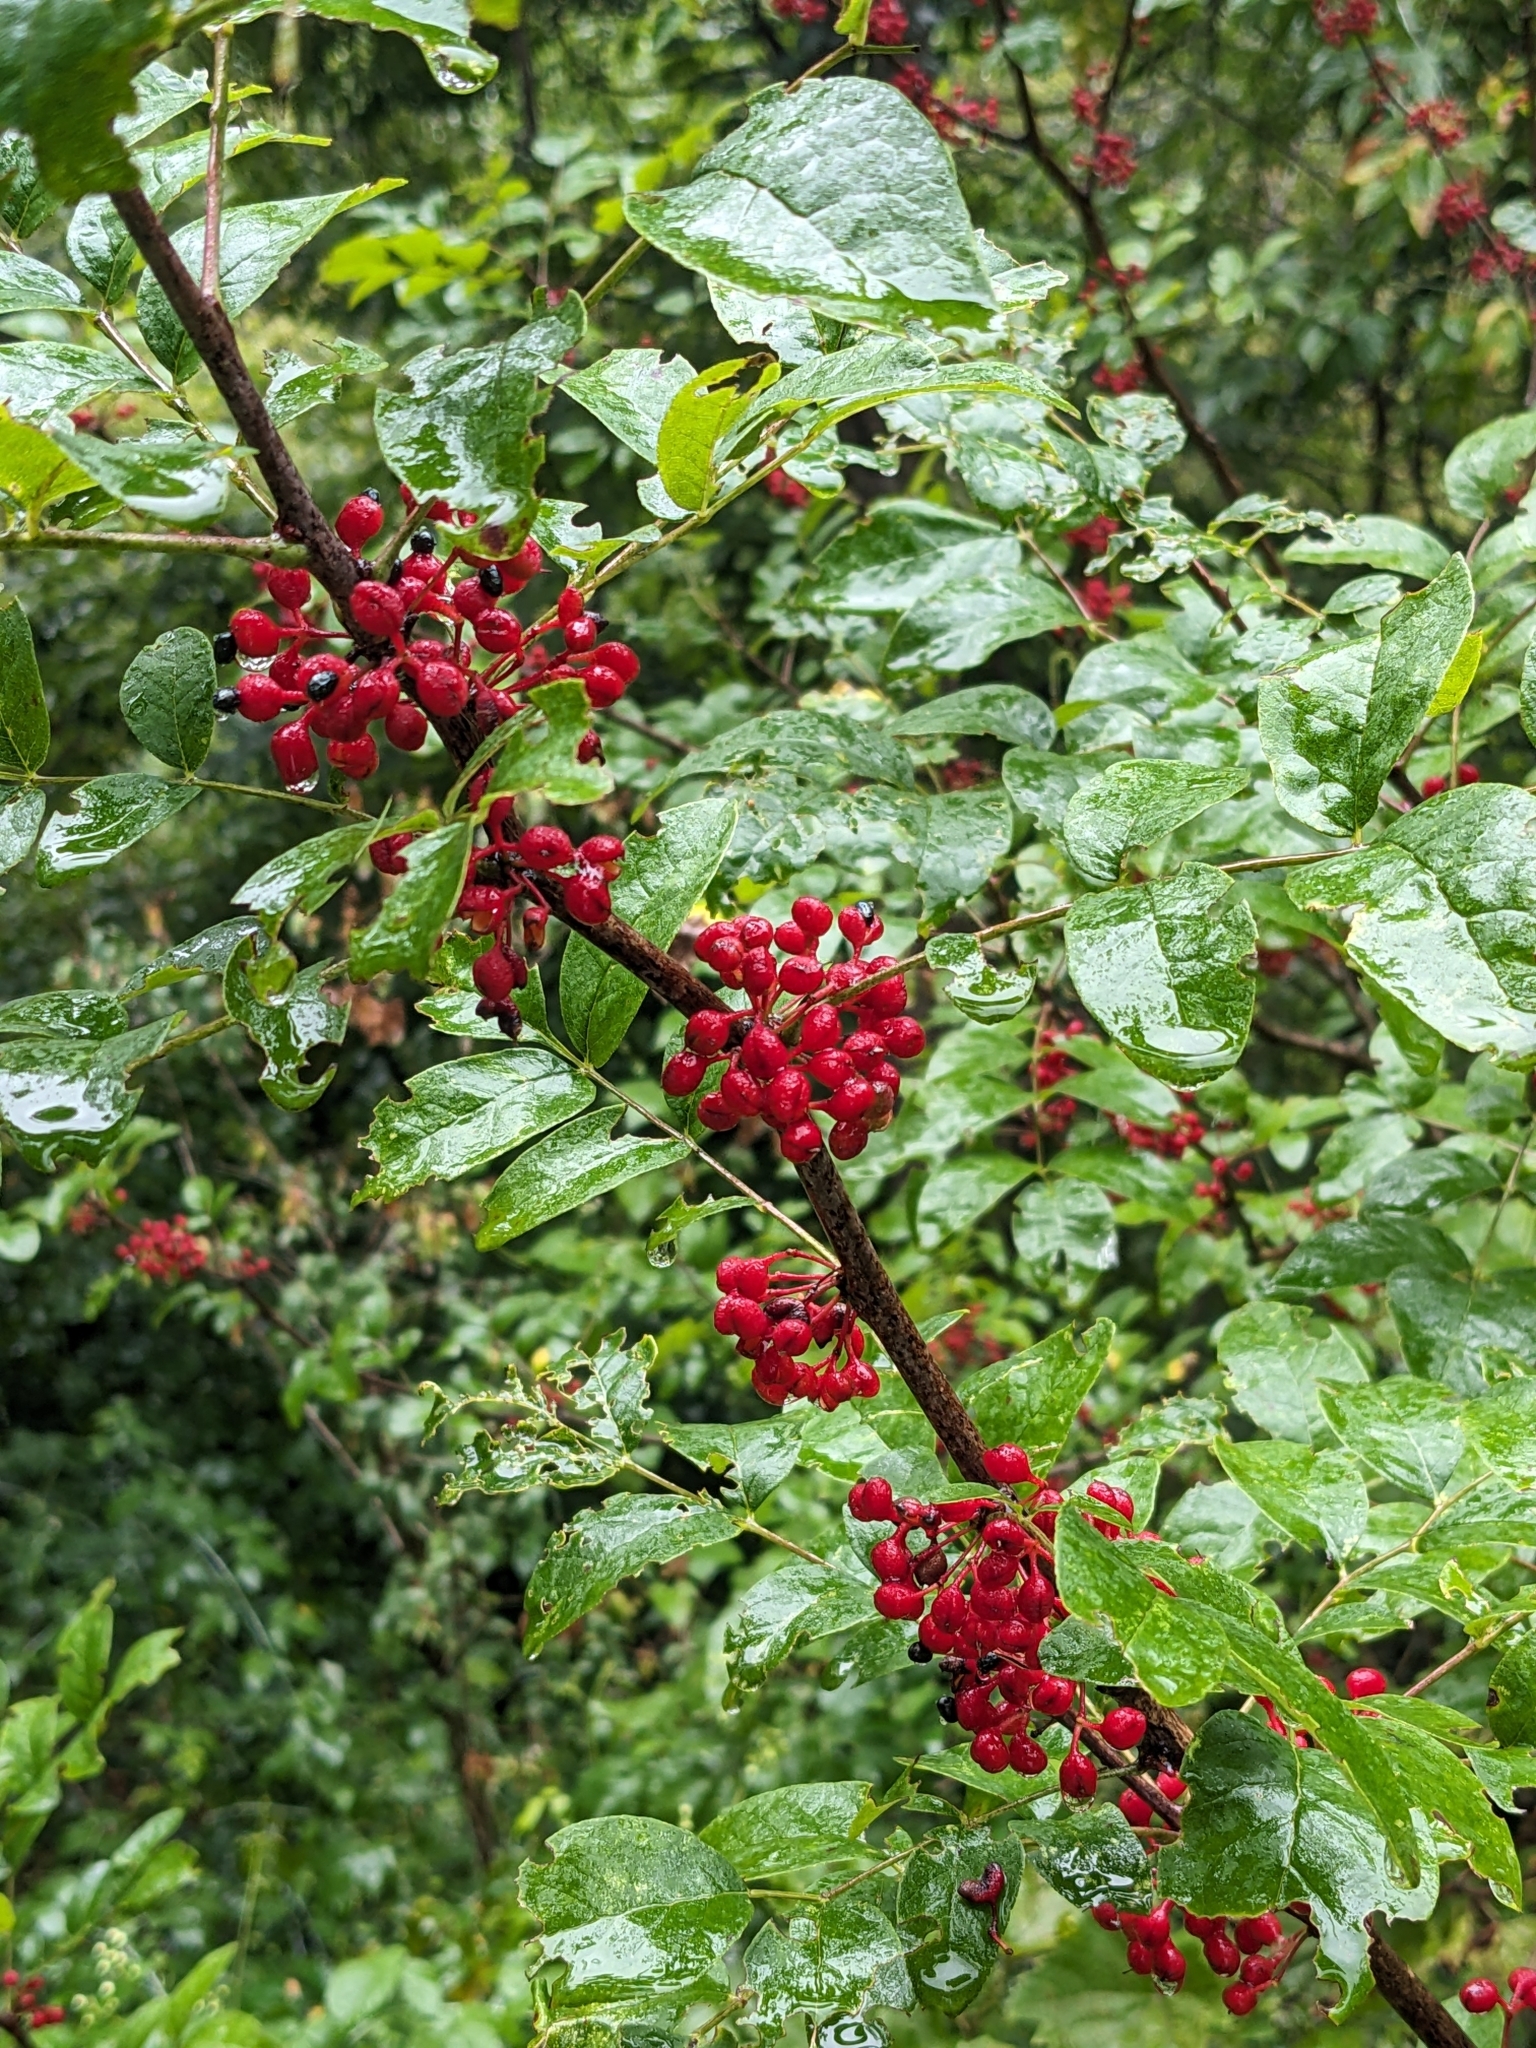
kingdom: Plantae
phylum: Tracheophyta
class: Magnoliopsida
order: Sapindales
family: Rutaceae
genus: Zanthoxylum
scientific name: Zanthoxylum americanum
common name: Northern prickly-ash
